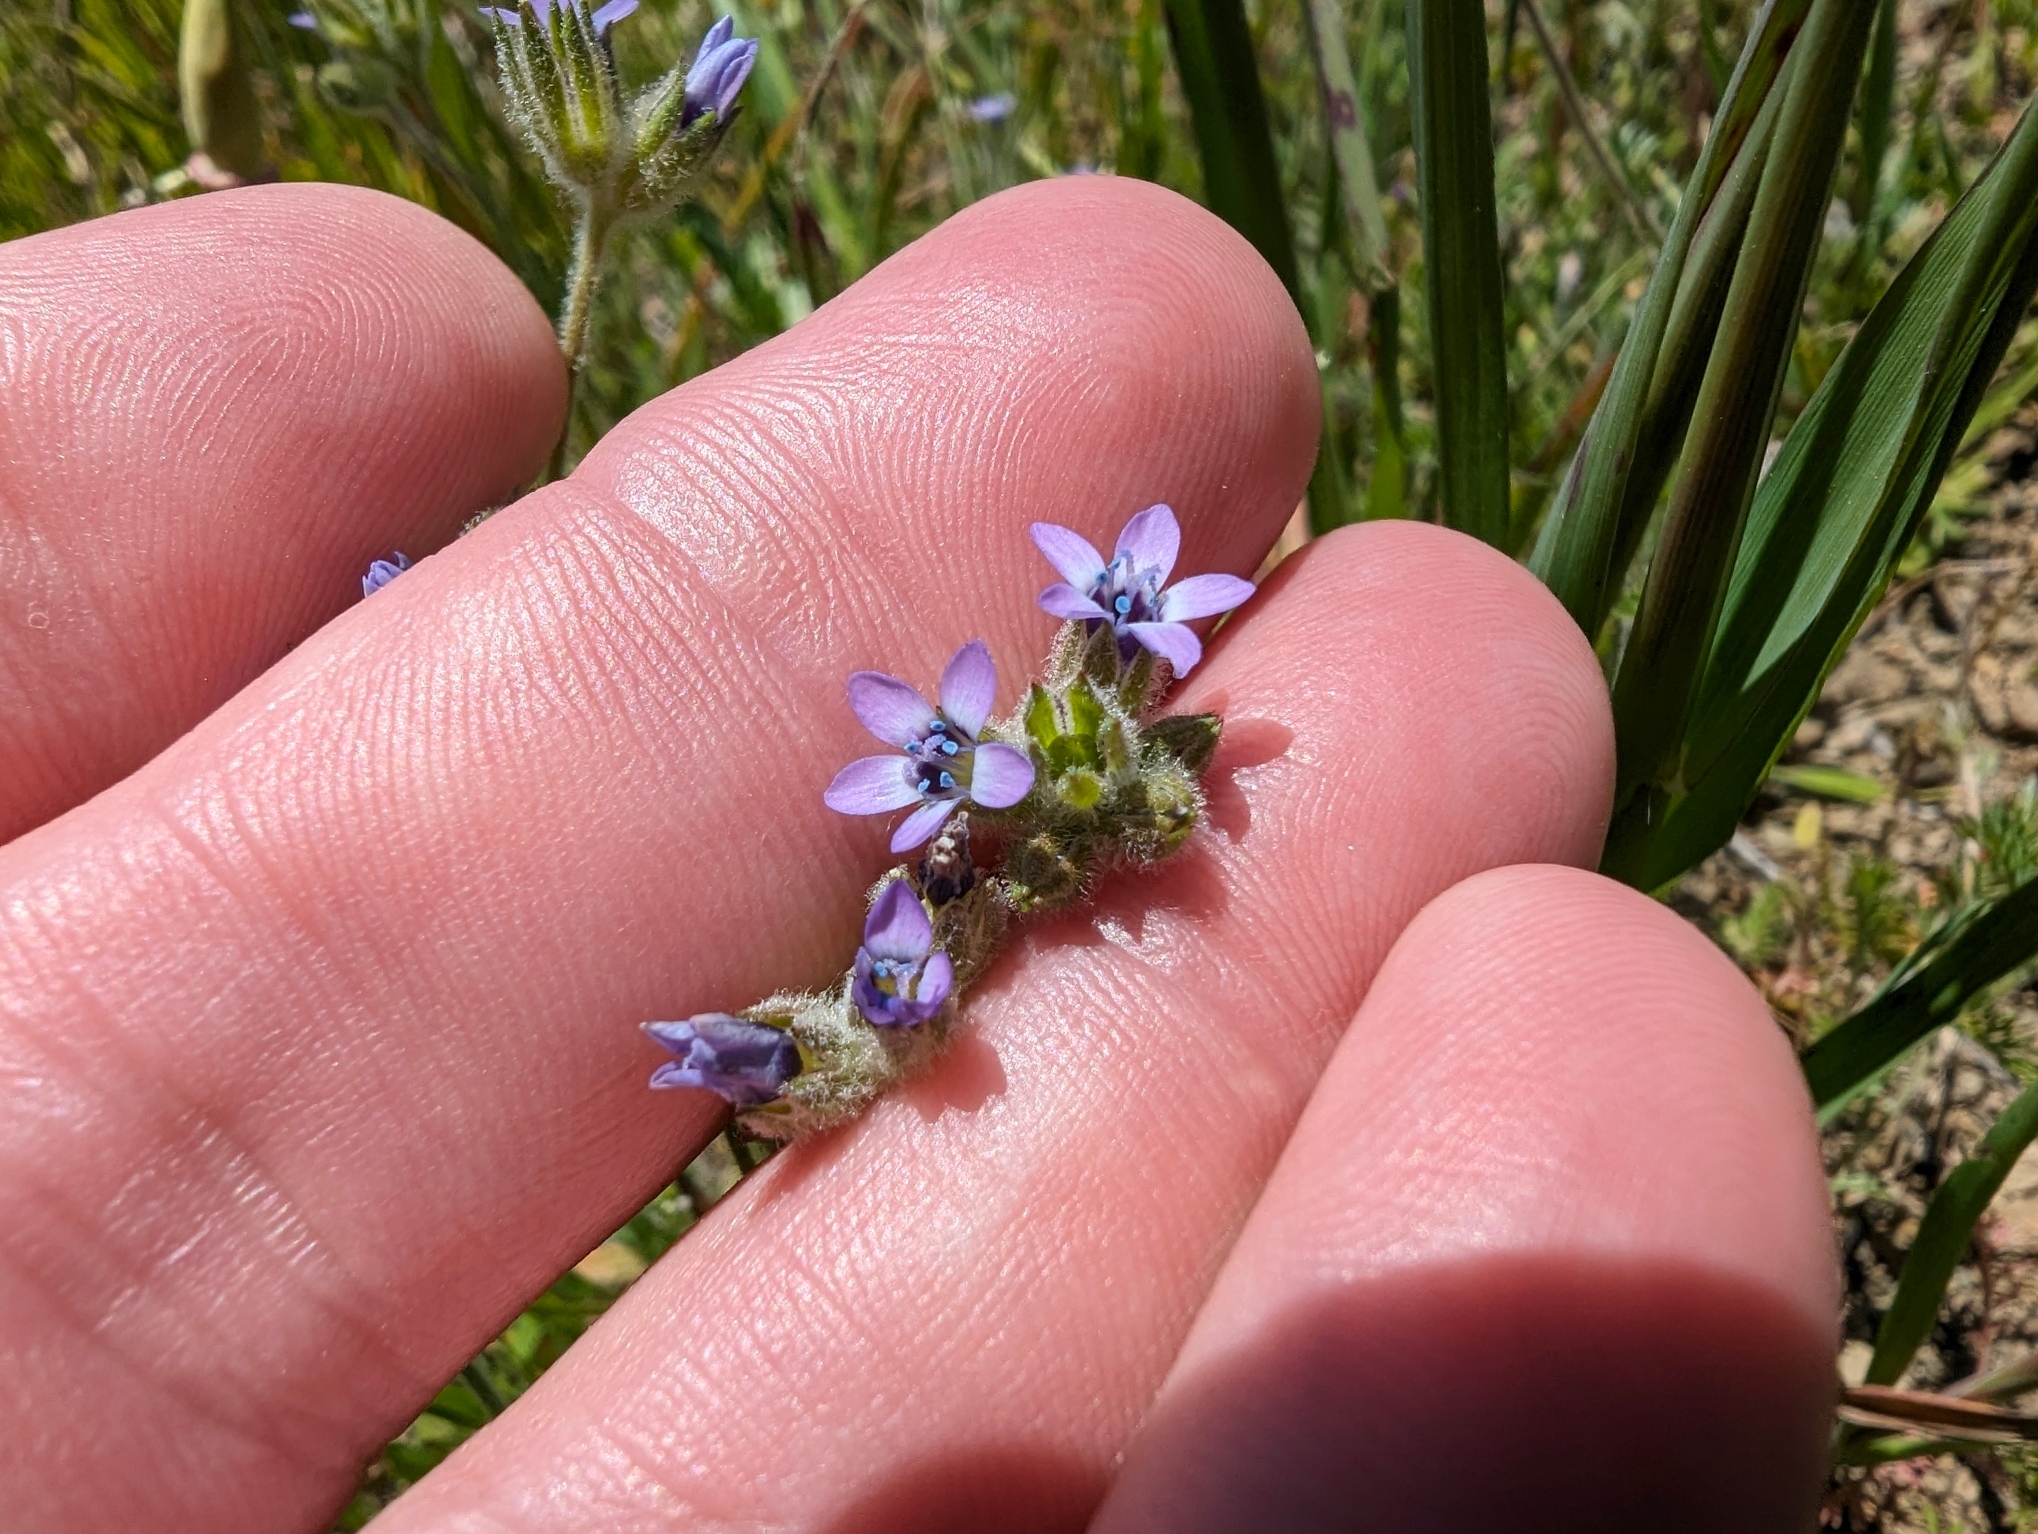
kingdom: Plantae
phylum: Tracheophyta
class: Magnoliopsida
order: Ericales
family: Polemoniaceae
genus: Gilia
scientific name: Gilia clivorum
